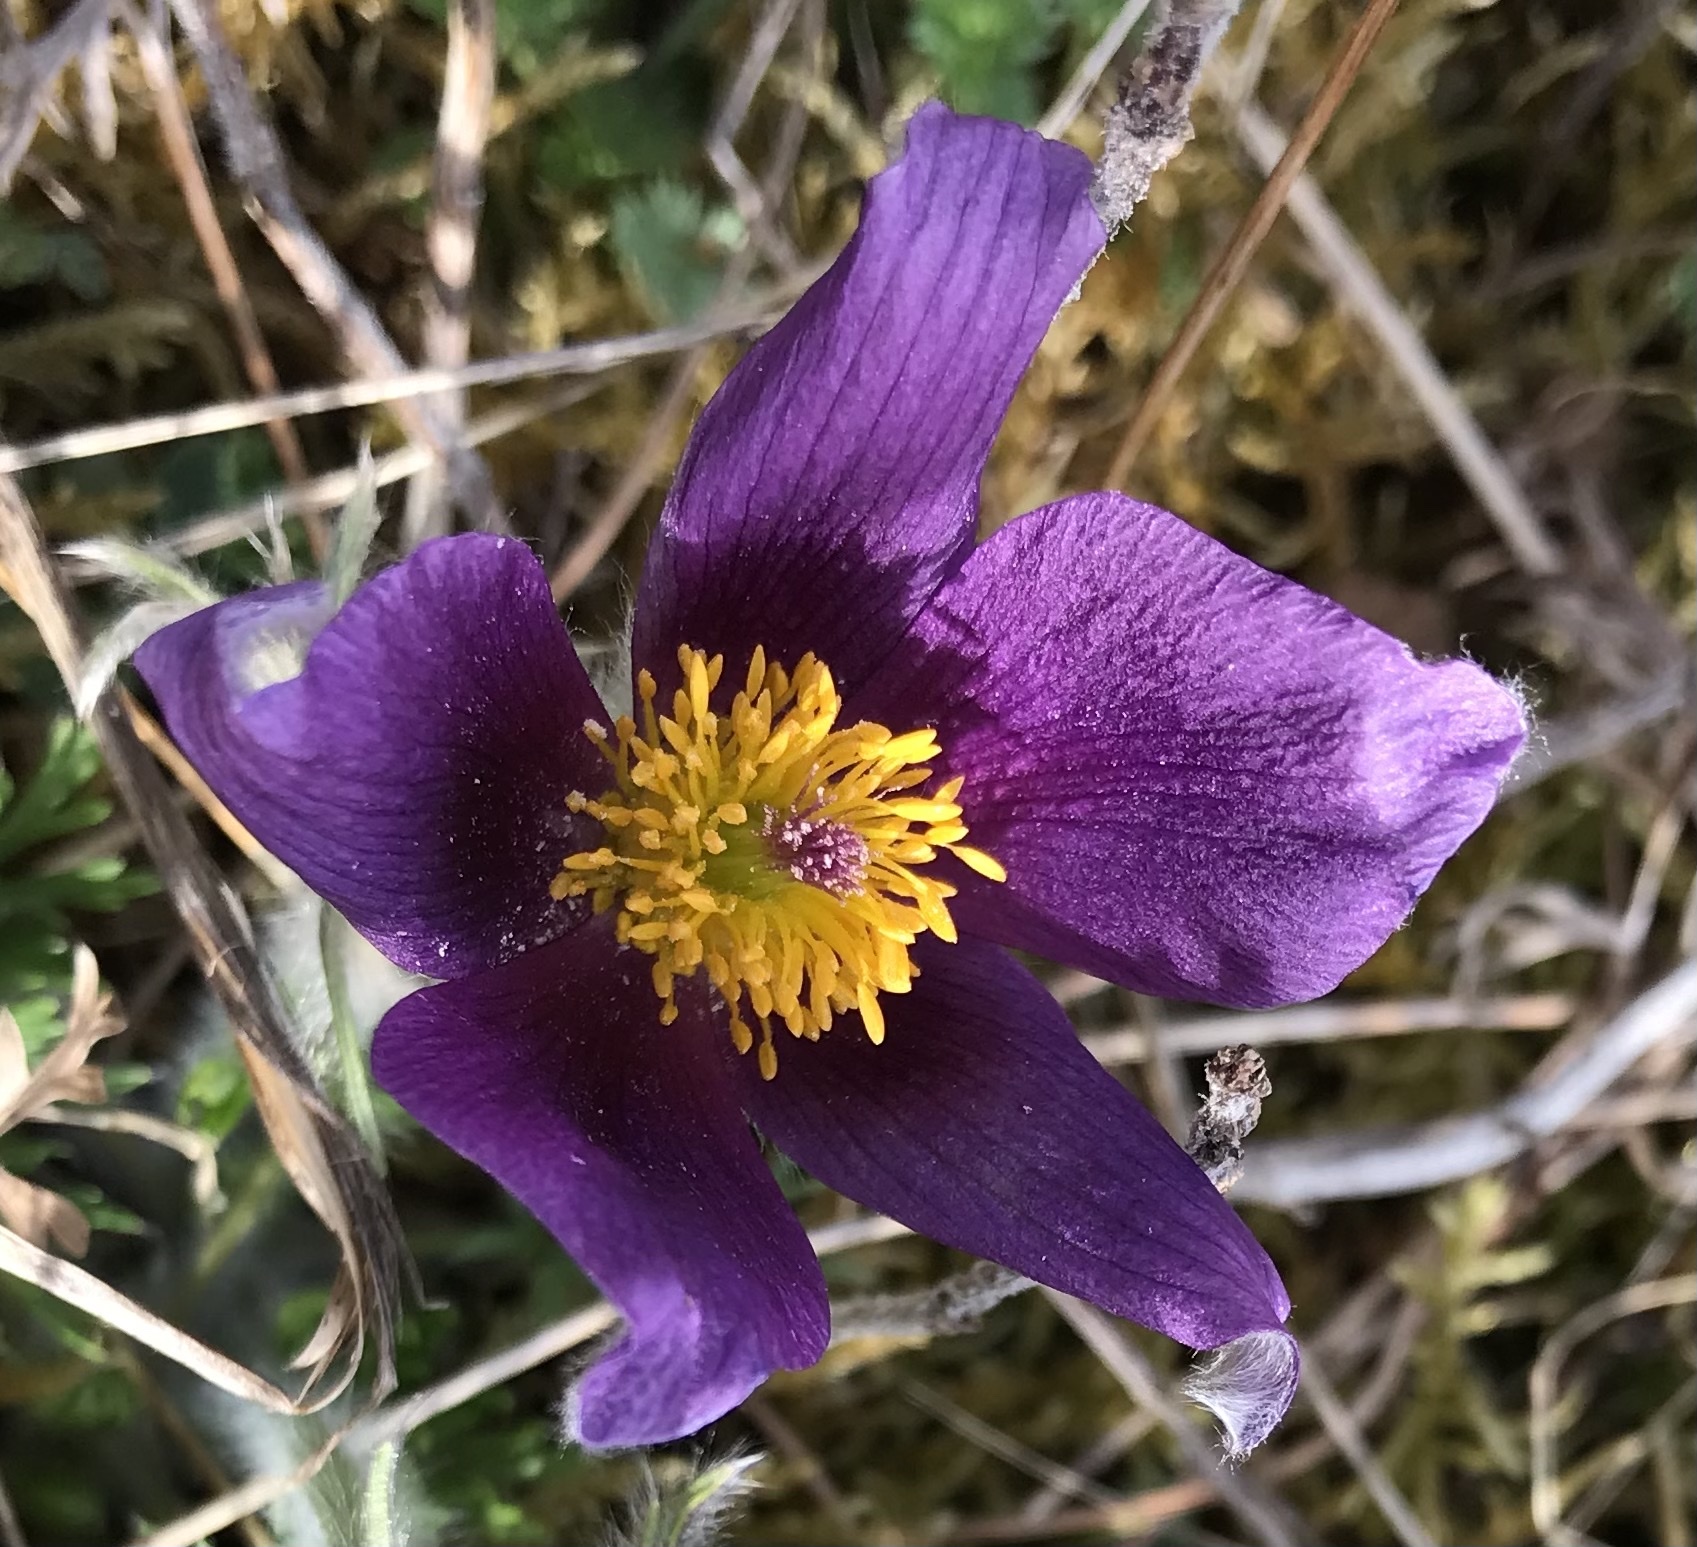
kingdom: Plantae
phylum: Tracheophyta
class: Magnoliopsida
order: Ranunculales
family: Ranunculaceae
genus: Pulsatilla
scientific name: Pulsatilla vulgaris
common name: Pasqueflower
